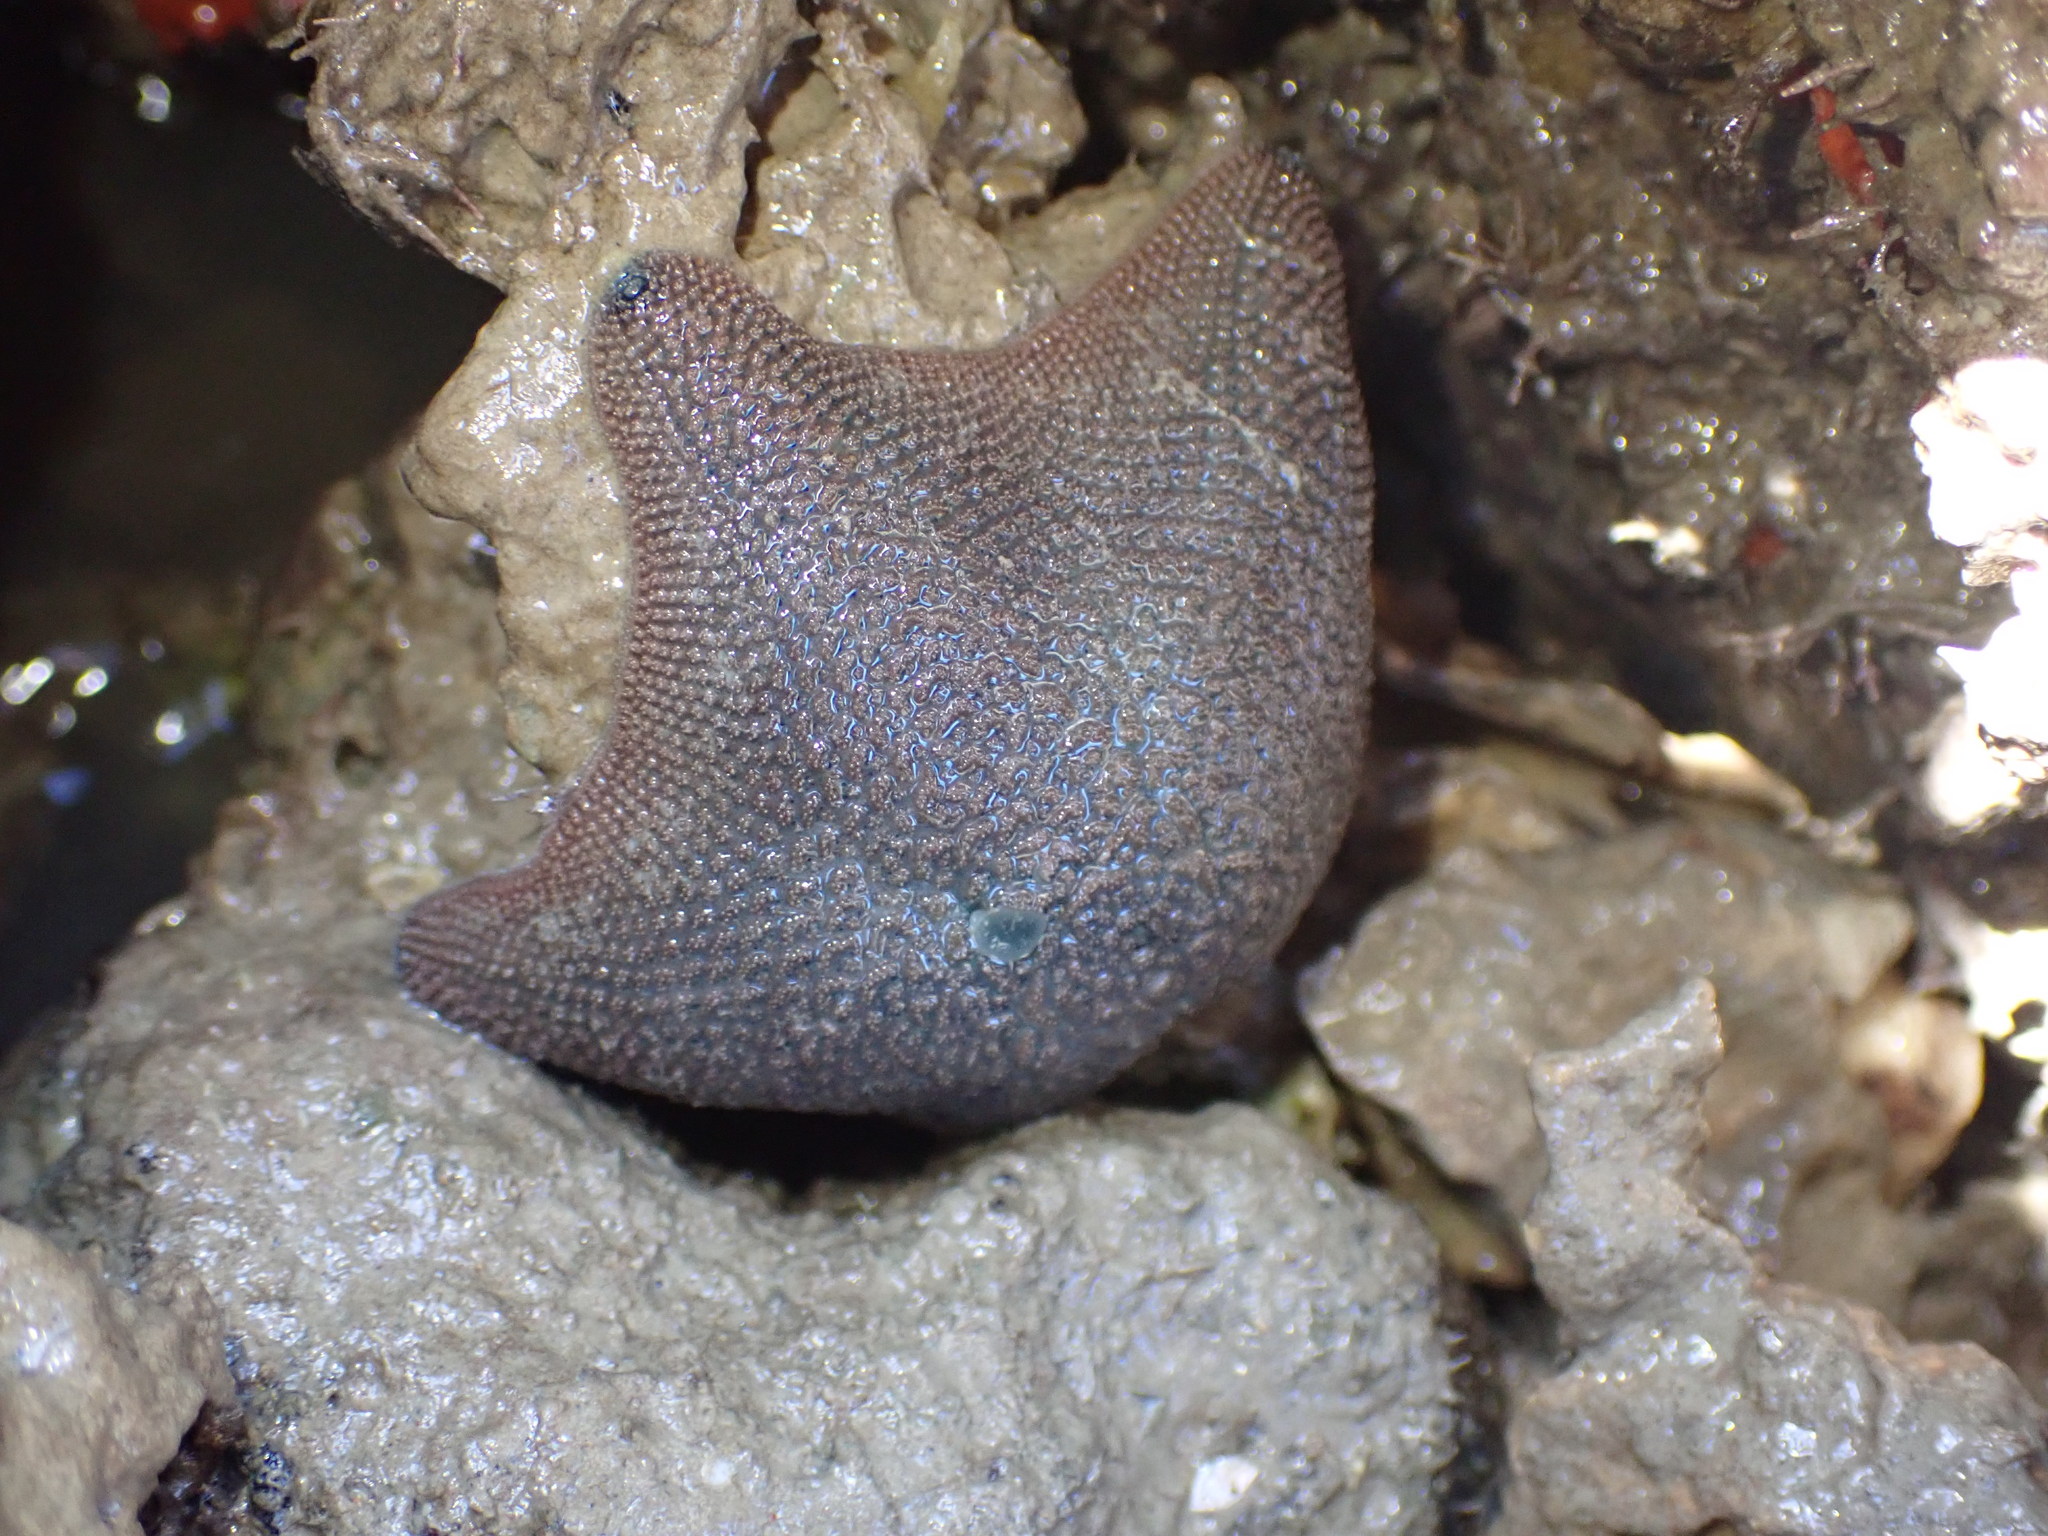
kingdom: Animalia
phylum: Echinodermata
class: Asteroidea
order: Valvatida
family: Asterinidae
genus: Patiriella
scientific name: Patiriella regularis
